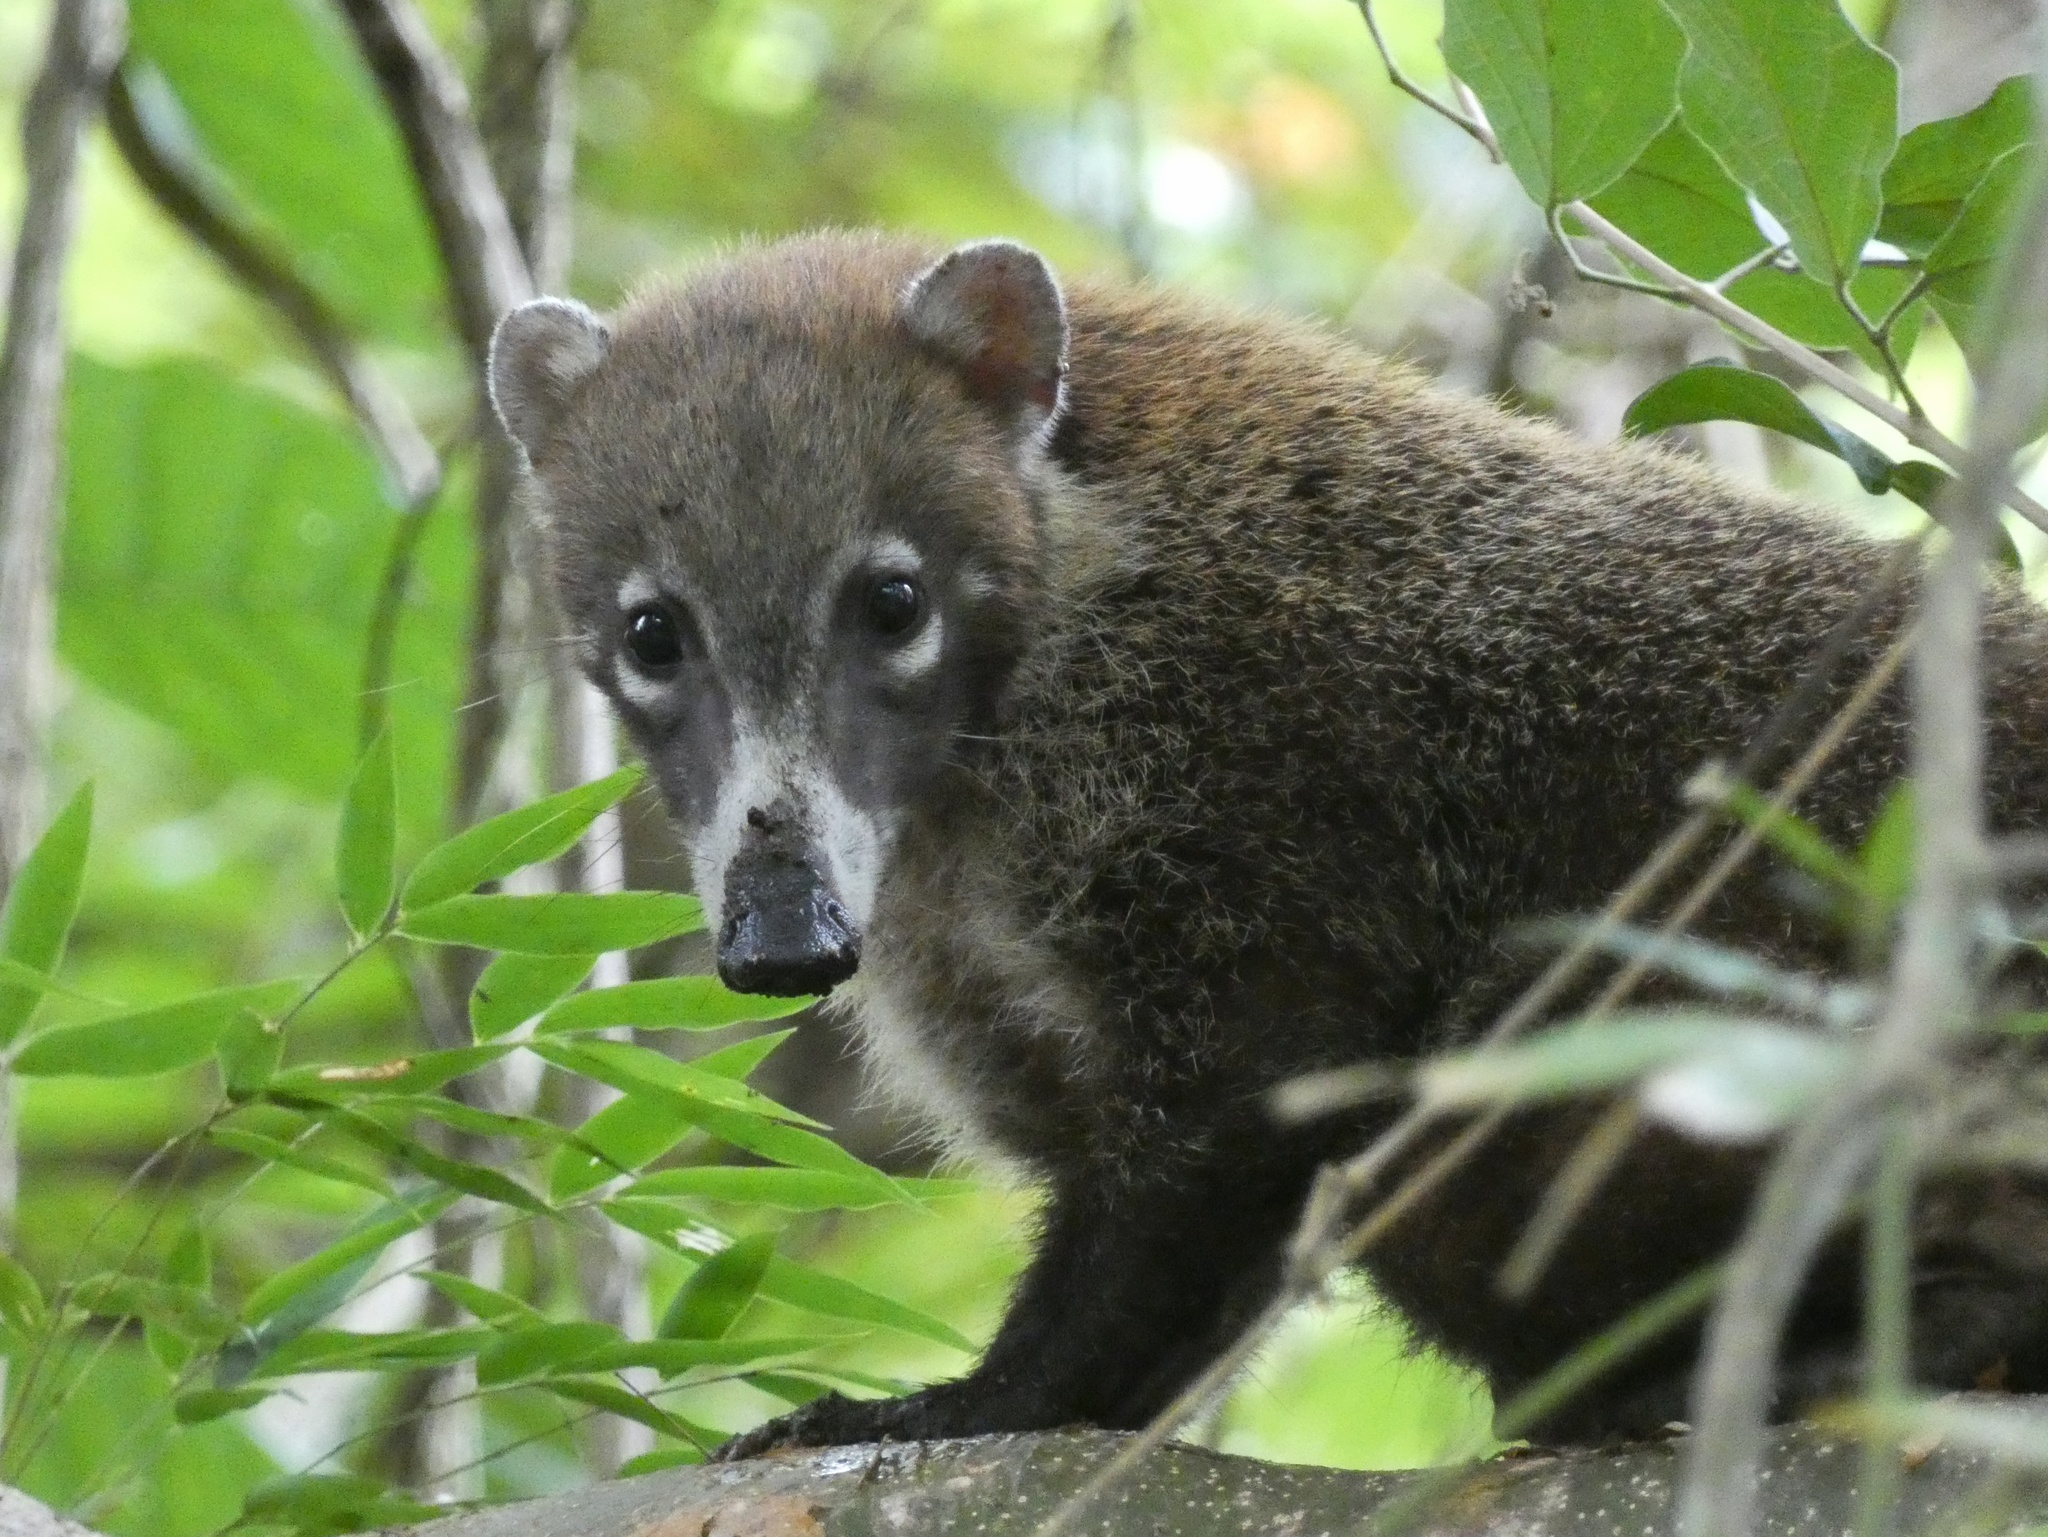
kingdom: Animalia
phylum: Chordata
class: Mammalia
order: Carnivora
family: Procyonidae
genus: Nasua
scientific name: Nasua narica
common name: White-nosed coati
